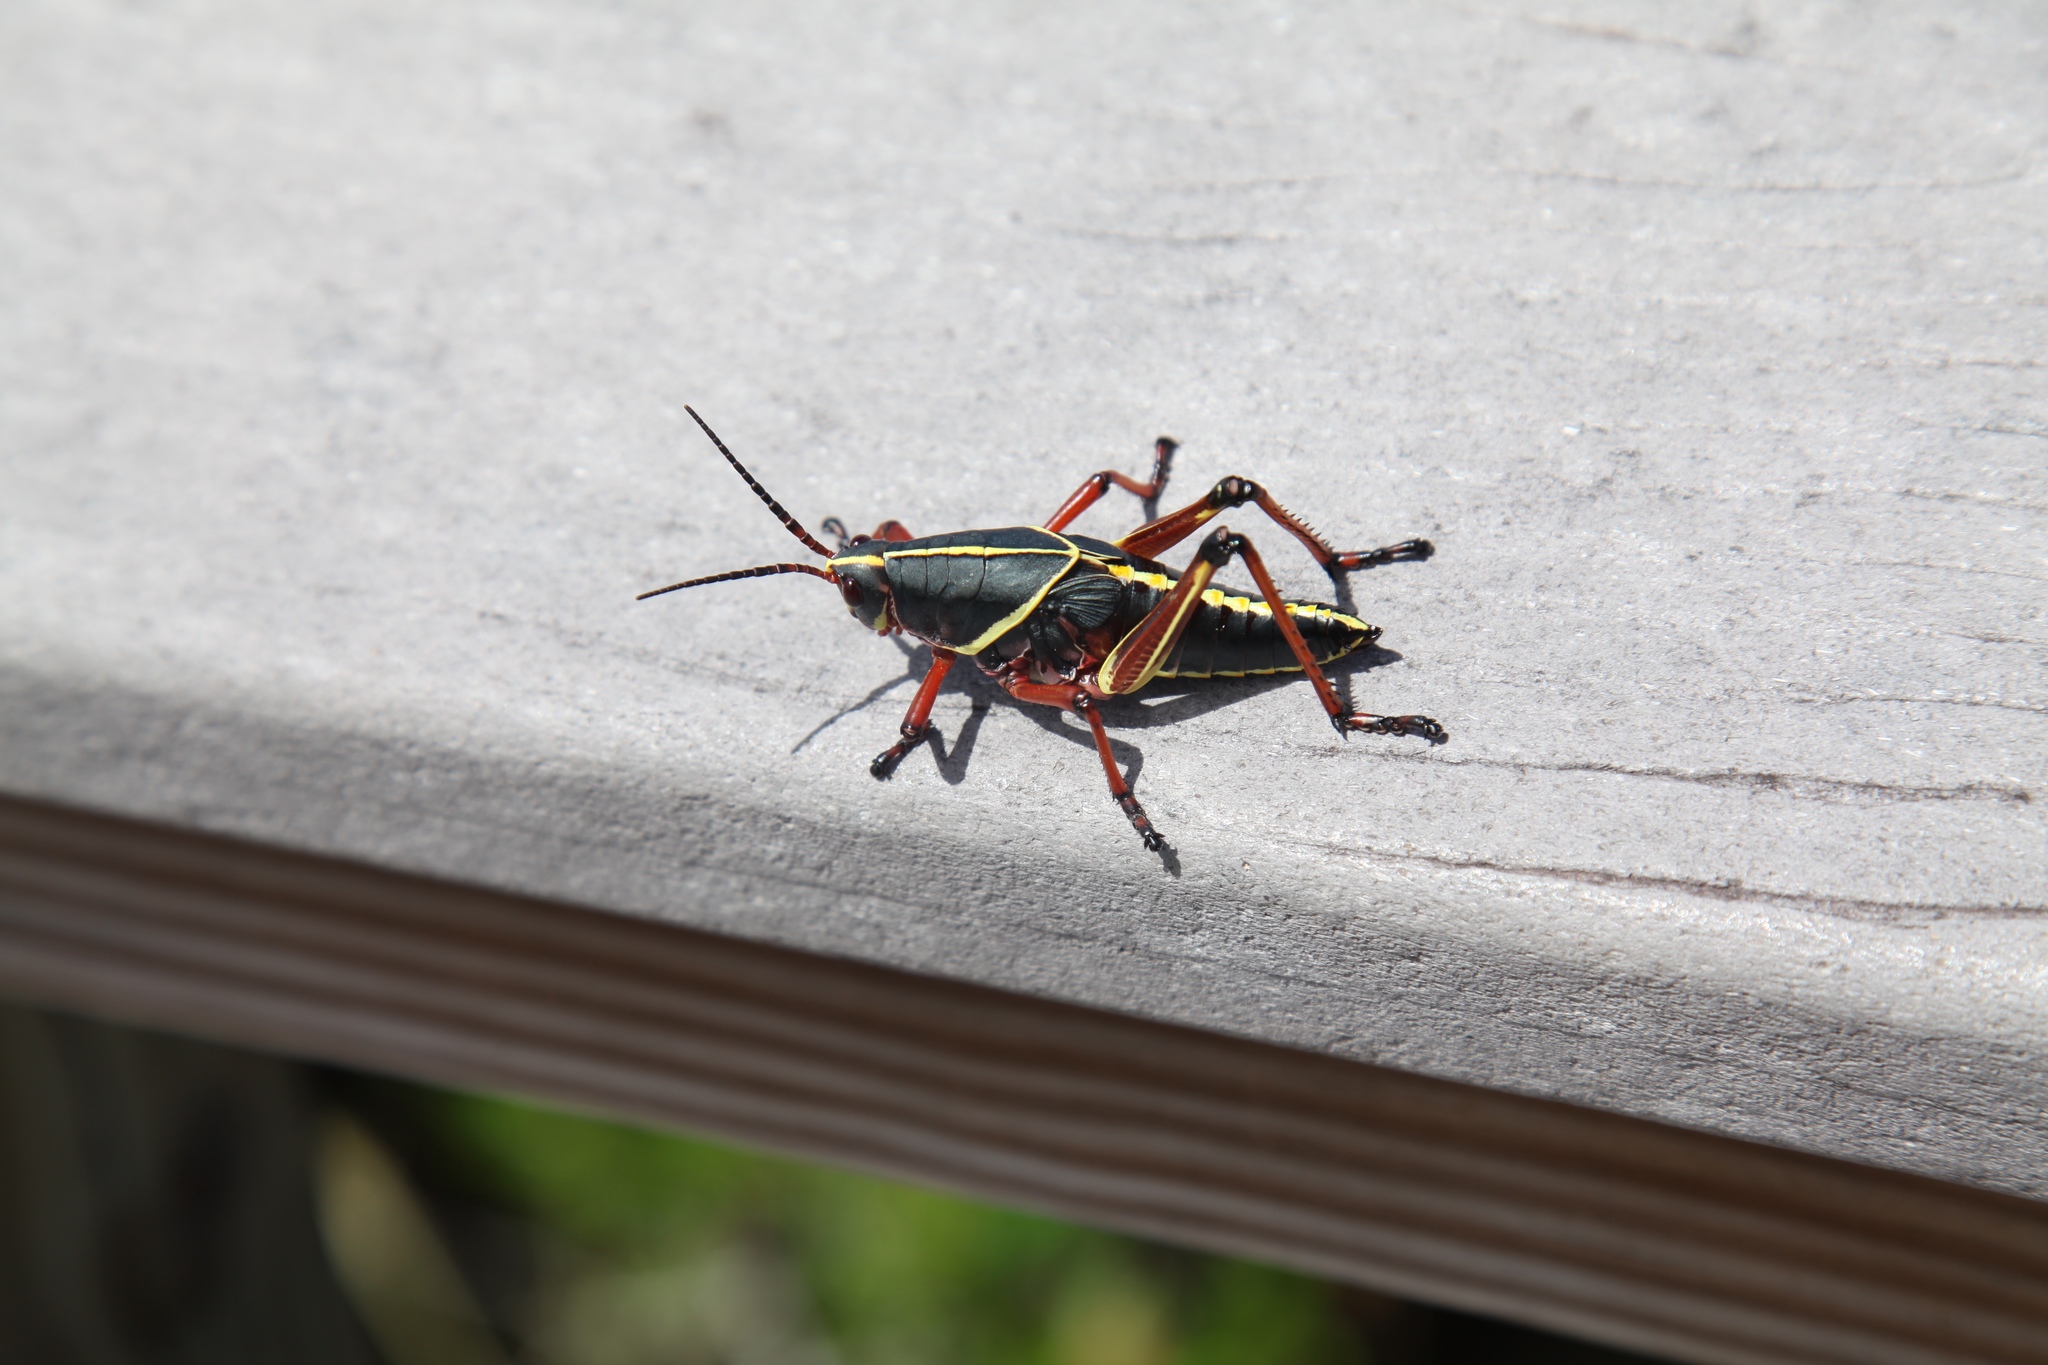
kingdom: Animalia
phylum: Arthropoda
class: Insecta
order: Orthoptera
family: Romaleidae
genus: Romalea
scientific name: Romalea microptera
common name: Eastern lubber grasshopper
